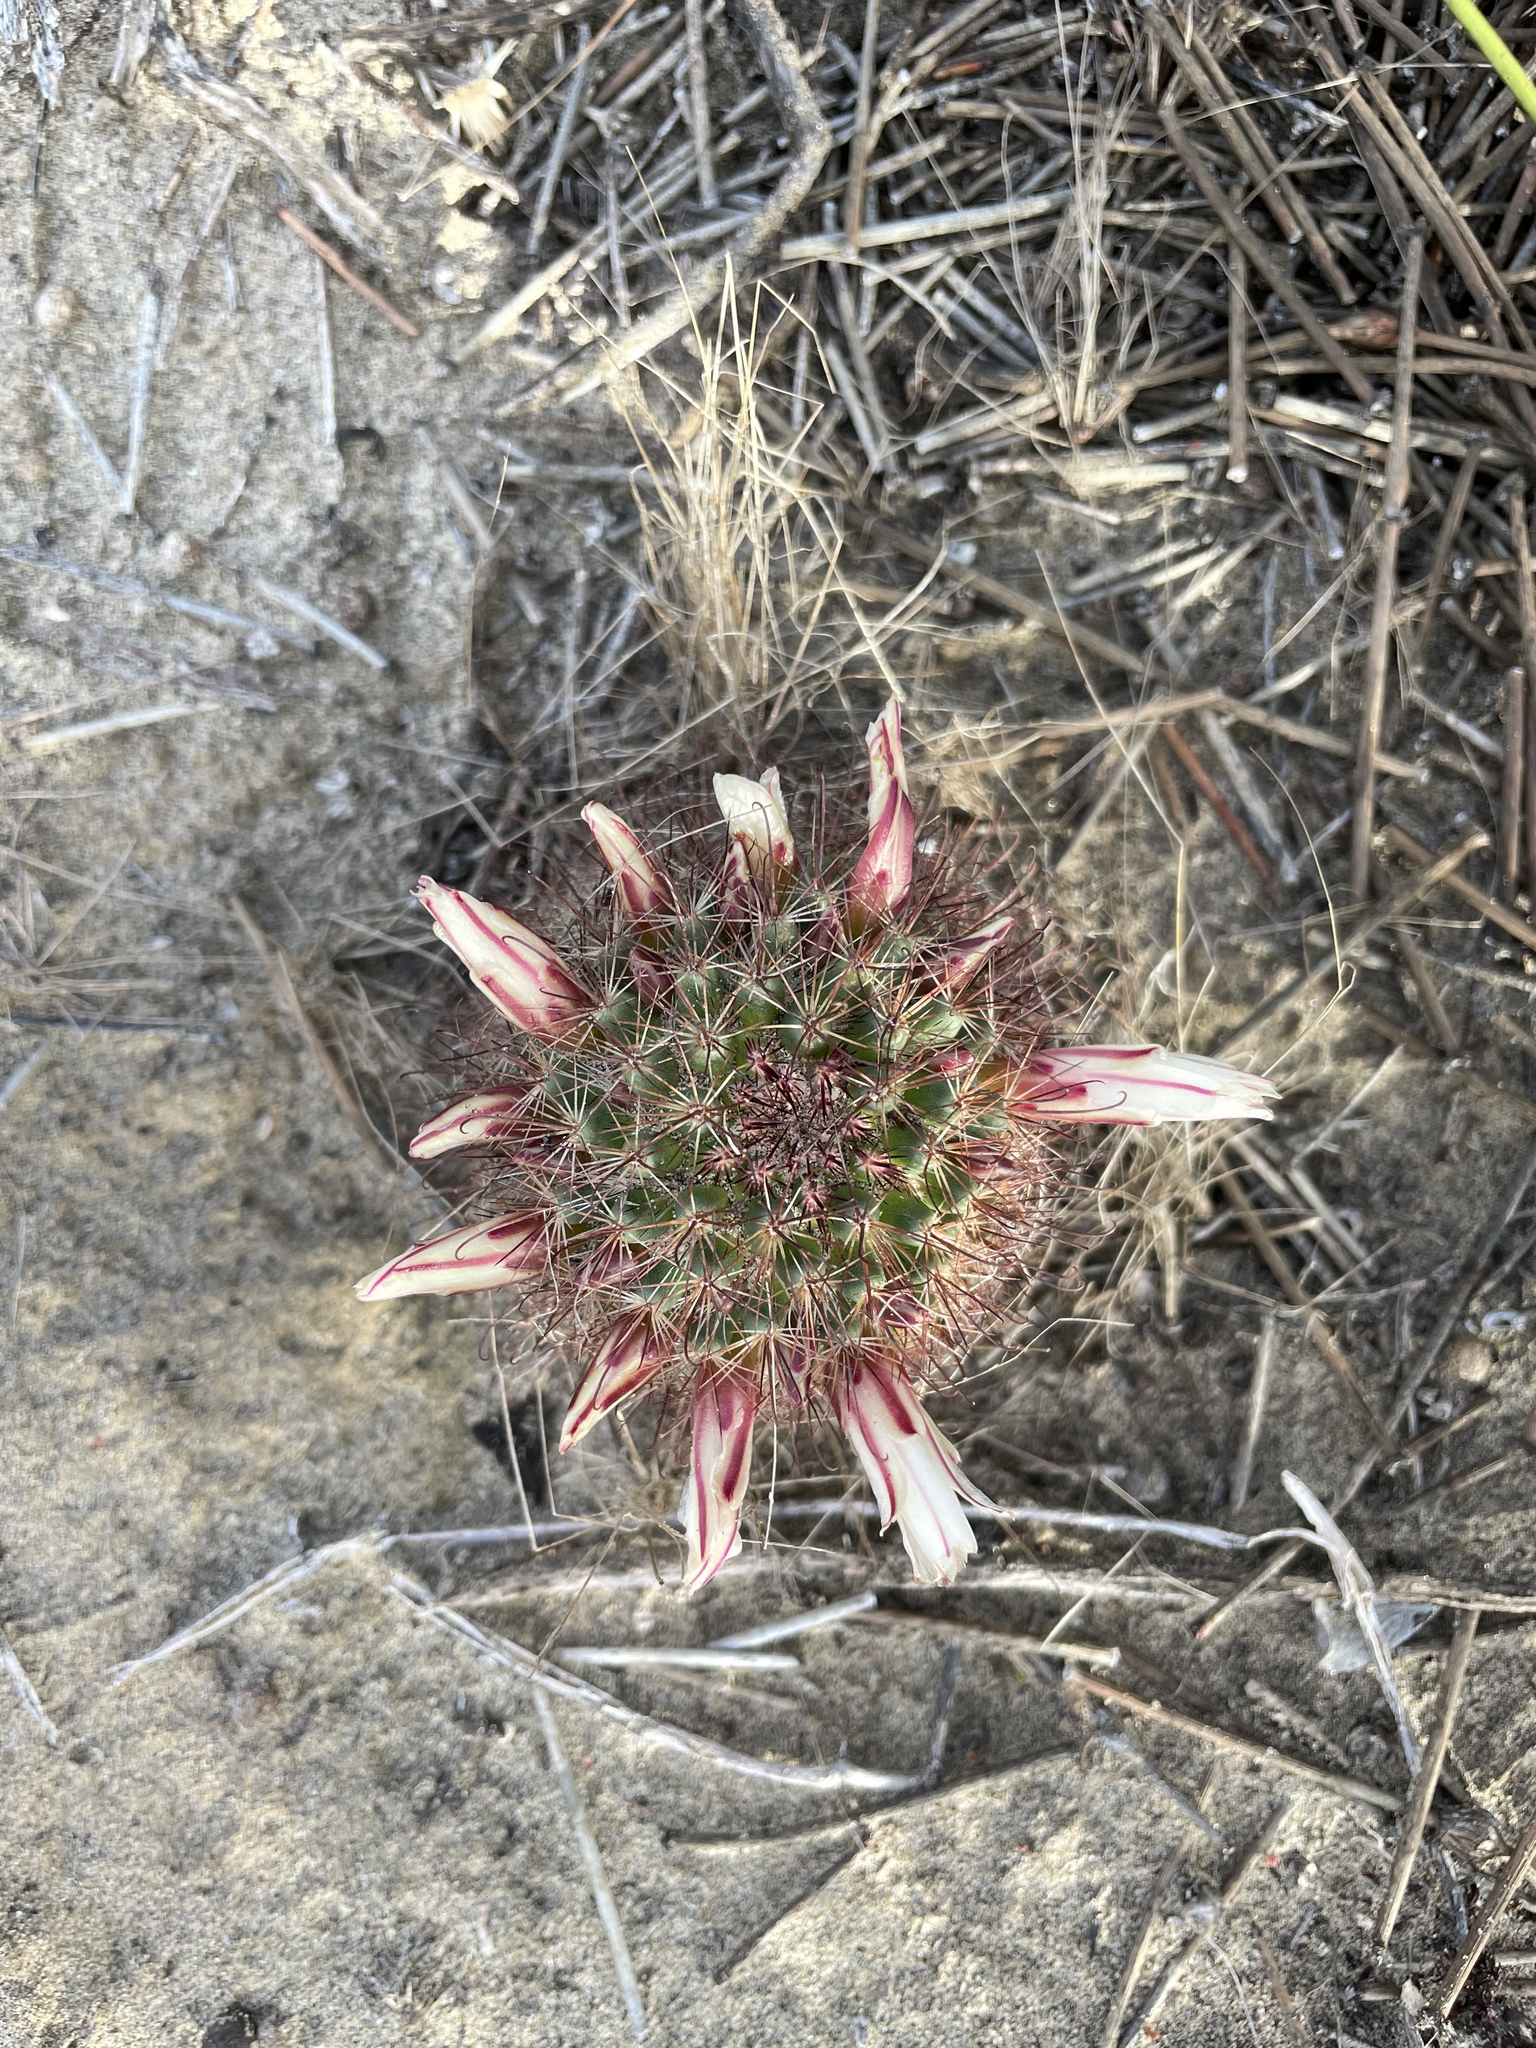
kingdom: Plantae
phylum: Tracheophyta
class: Magnoliopsida
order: Caryophyllales
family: Cactaceae
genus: Cochemiea
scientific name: Cochemiea dioica
